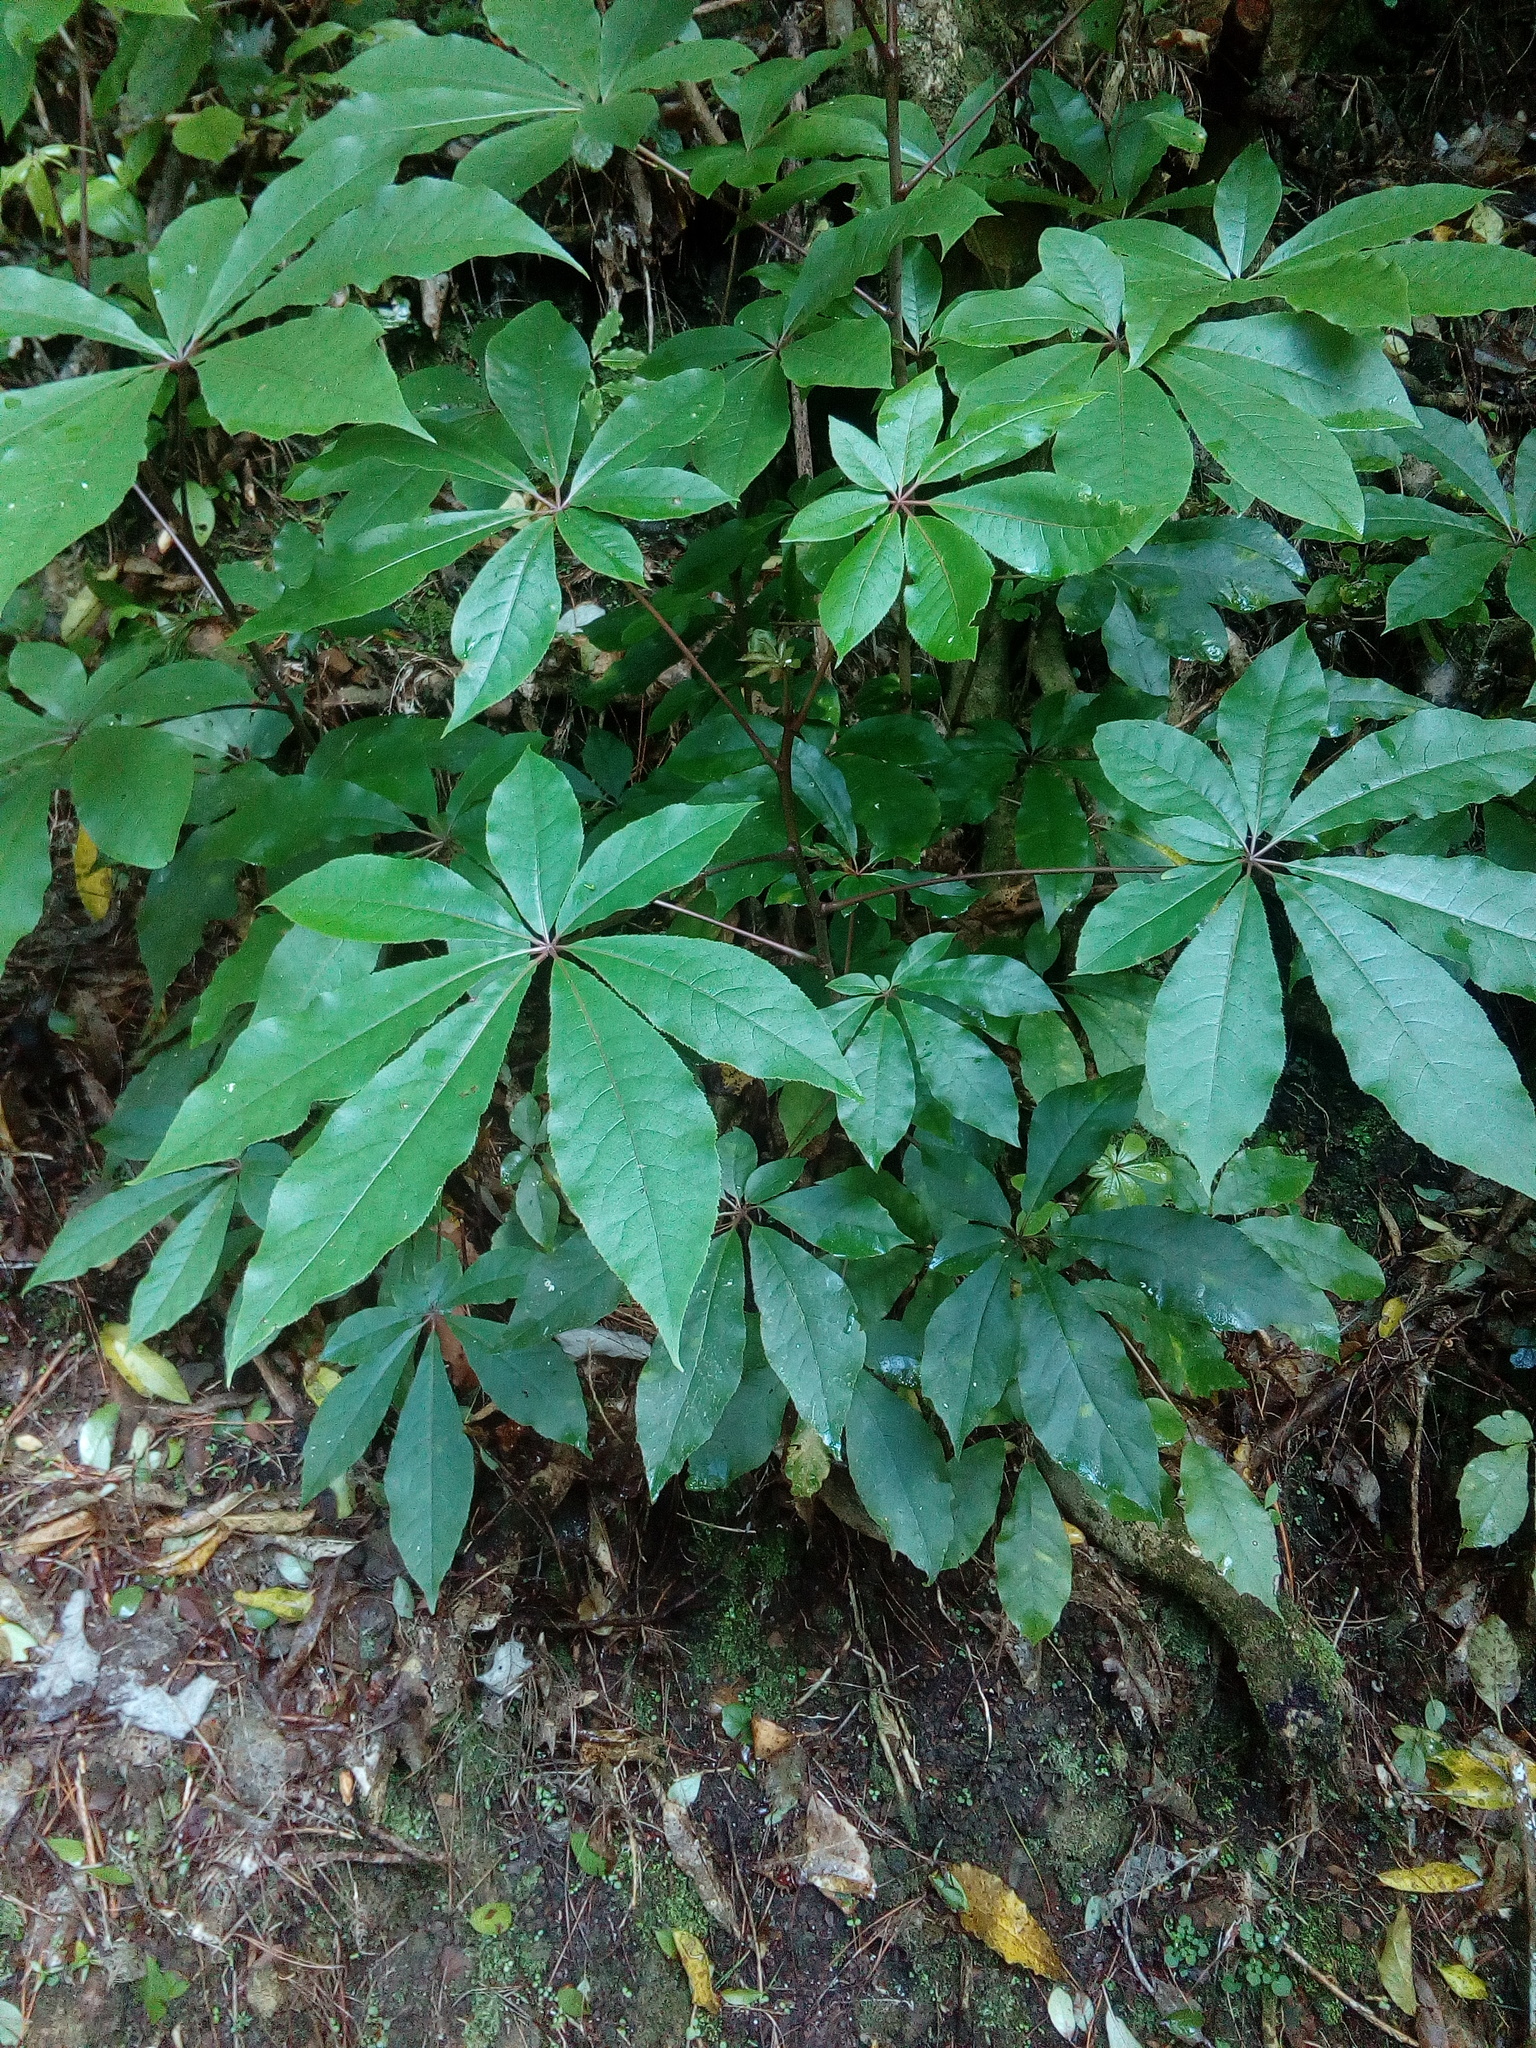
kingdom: Plantae
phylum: Tracheophyta
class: Magnoliopsida
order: Apiales
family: Araliaceae
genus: Schefflera
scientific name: Schefflera digitata
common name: Pate
